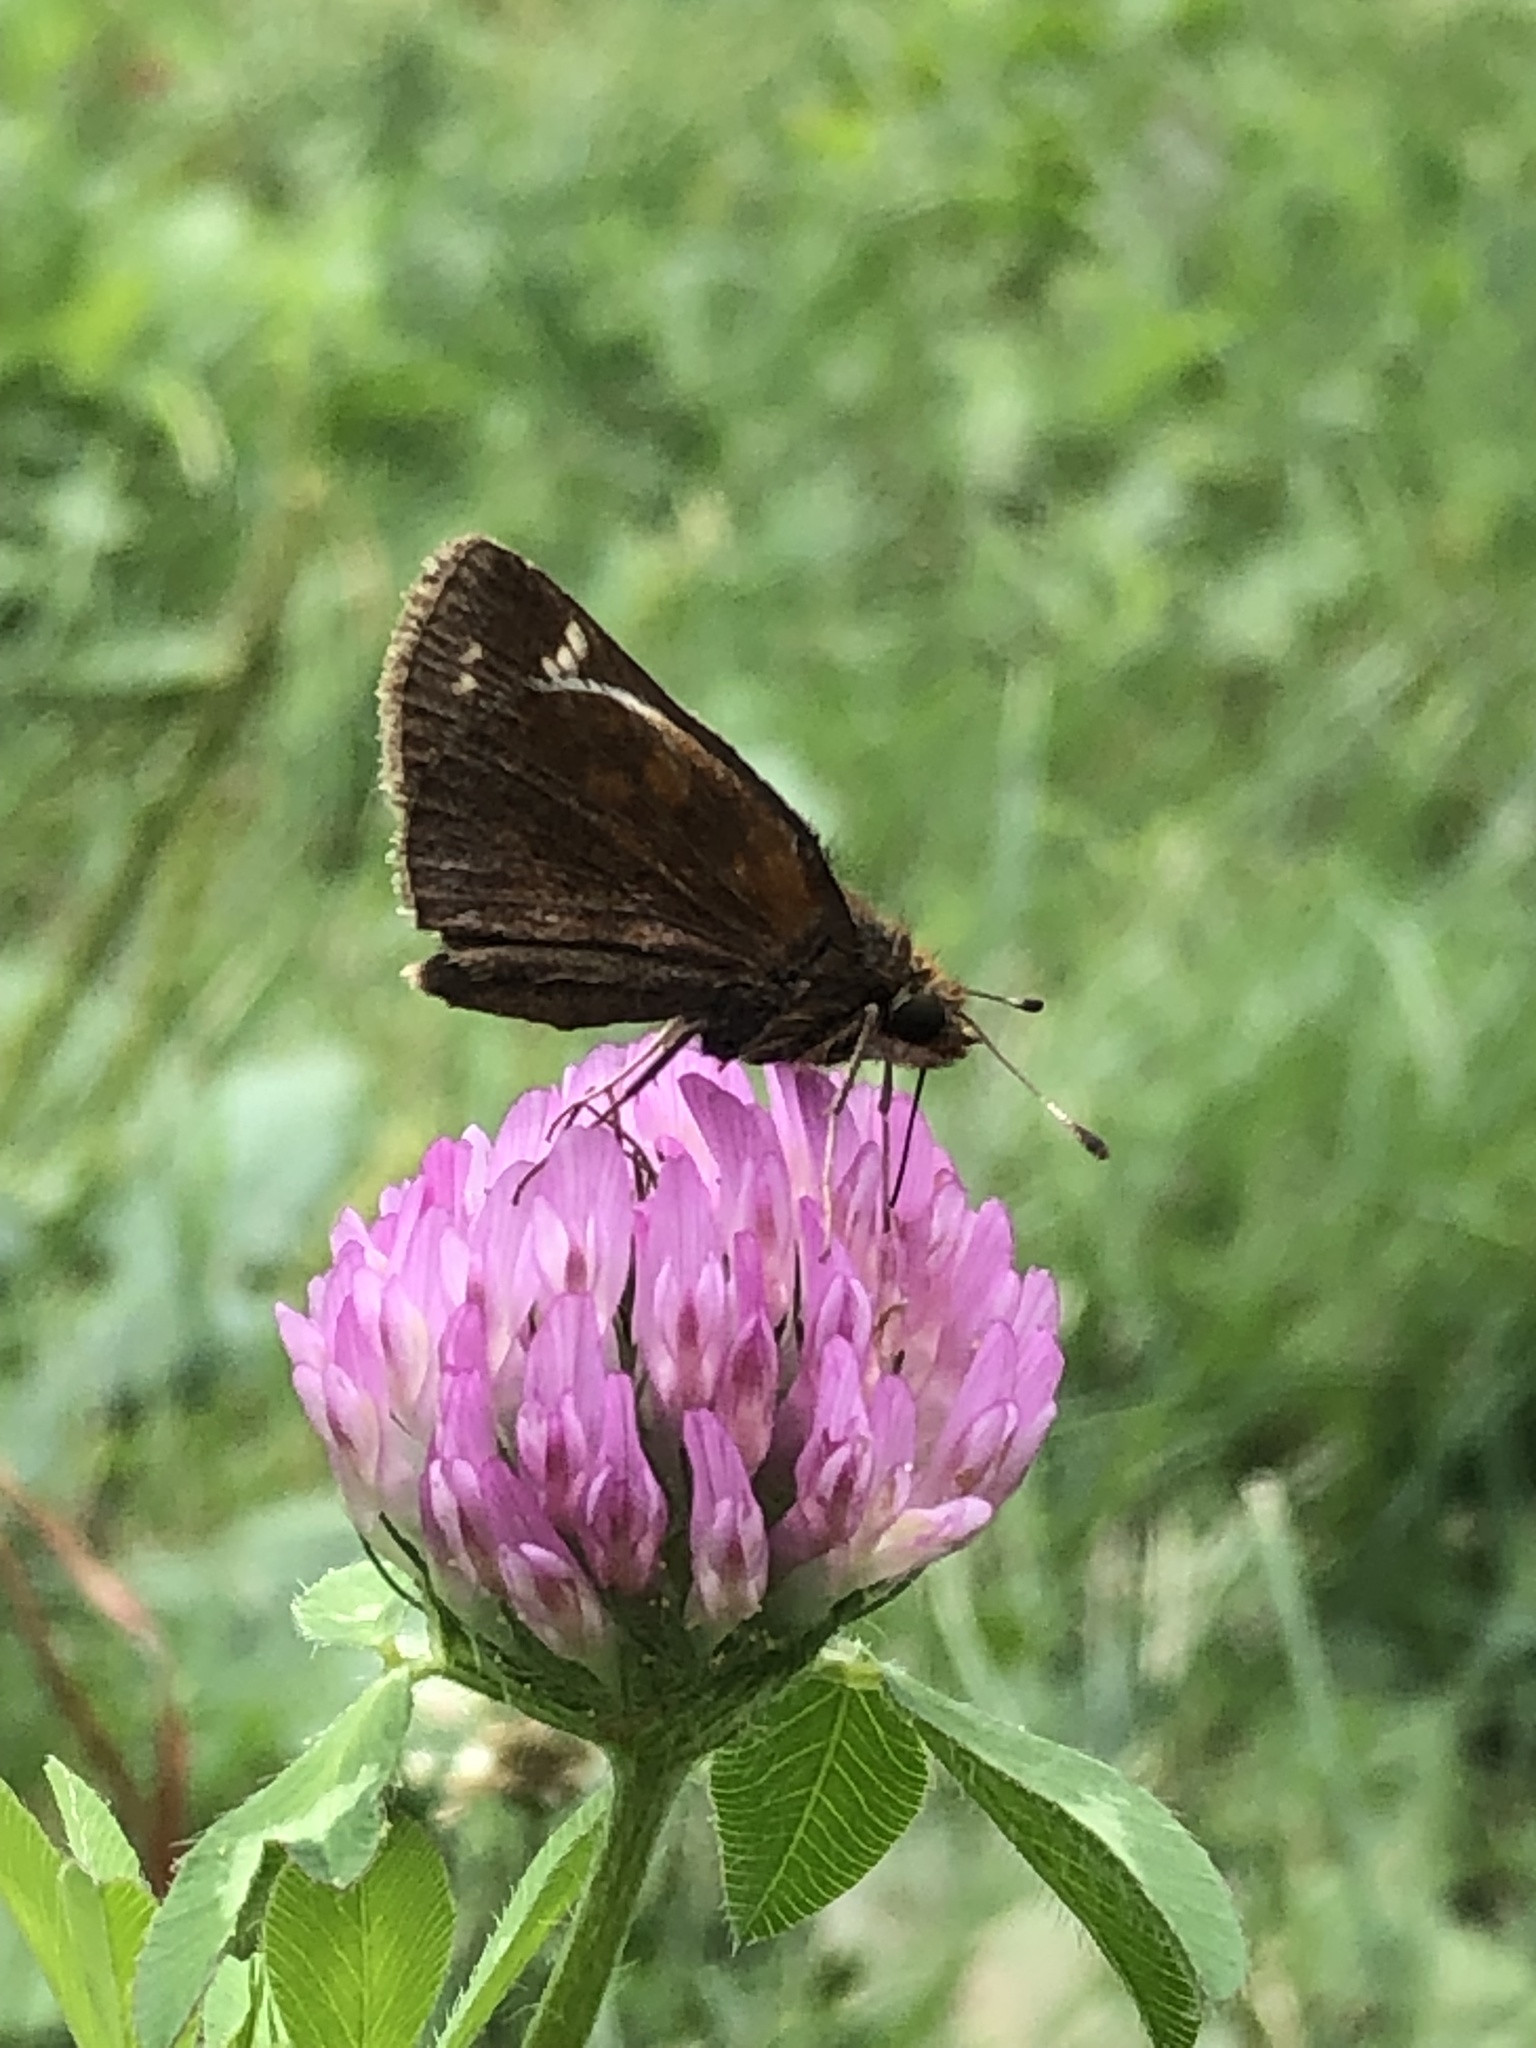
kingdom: Animalia
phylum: Arthropoda
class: Insecta
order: Lepidoptera
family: Hesperiidae
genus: Lon
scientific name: Lon zabulon
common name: Zabulon skipper
